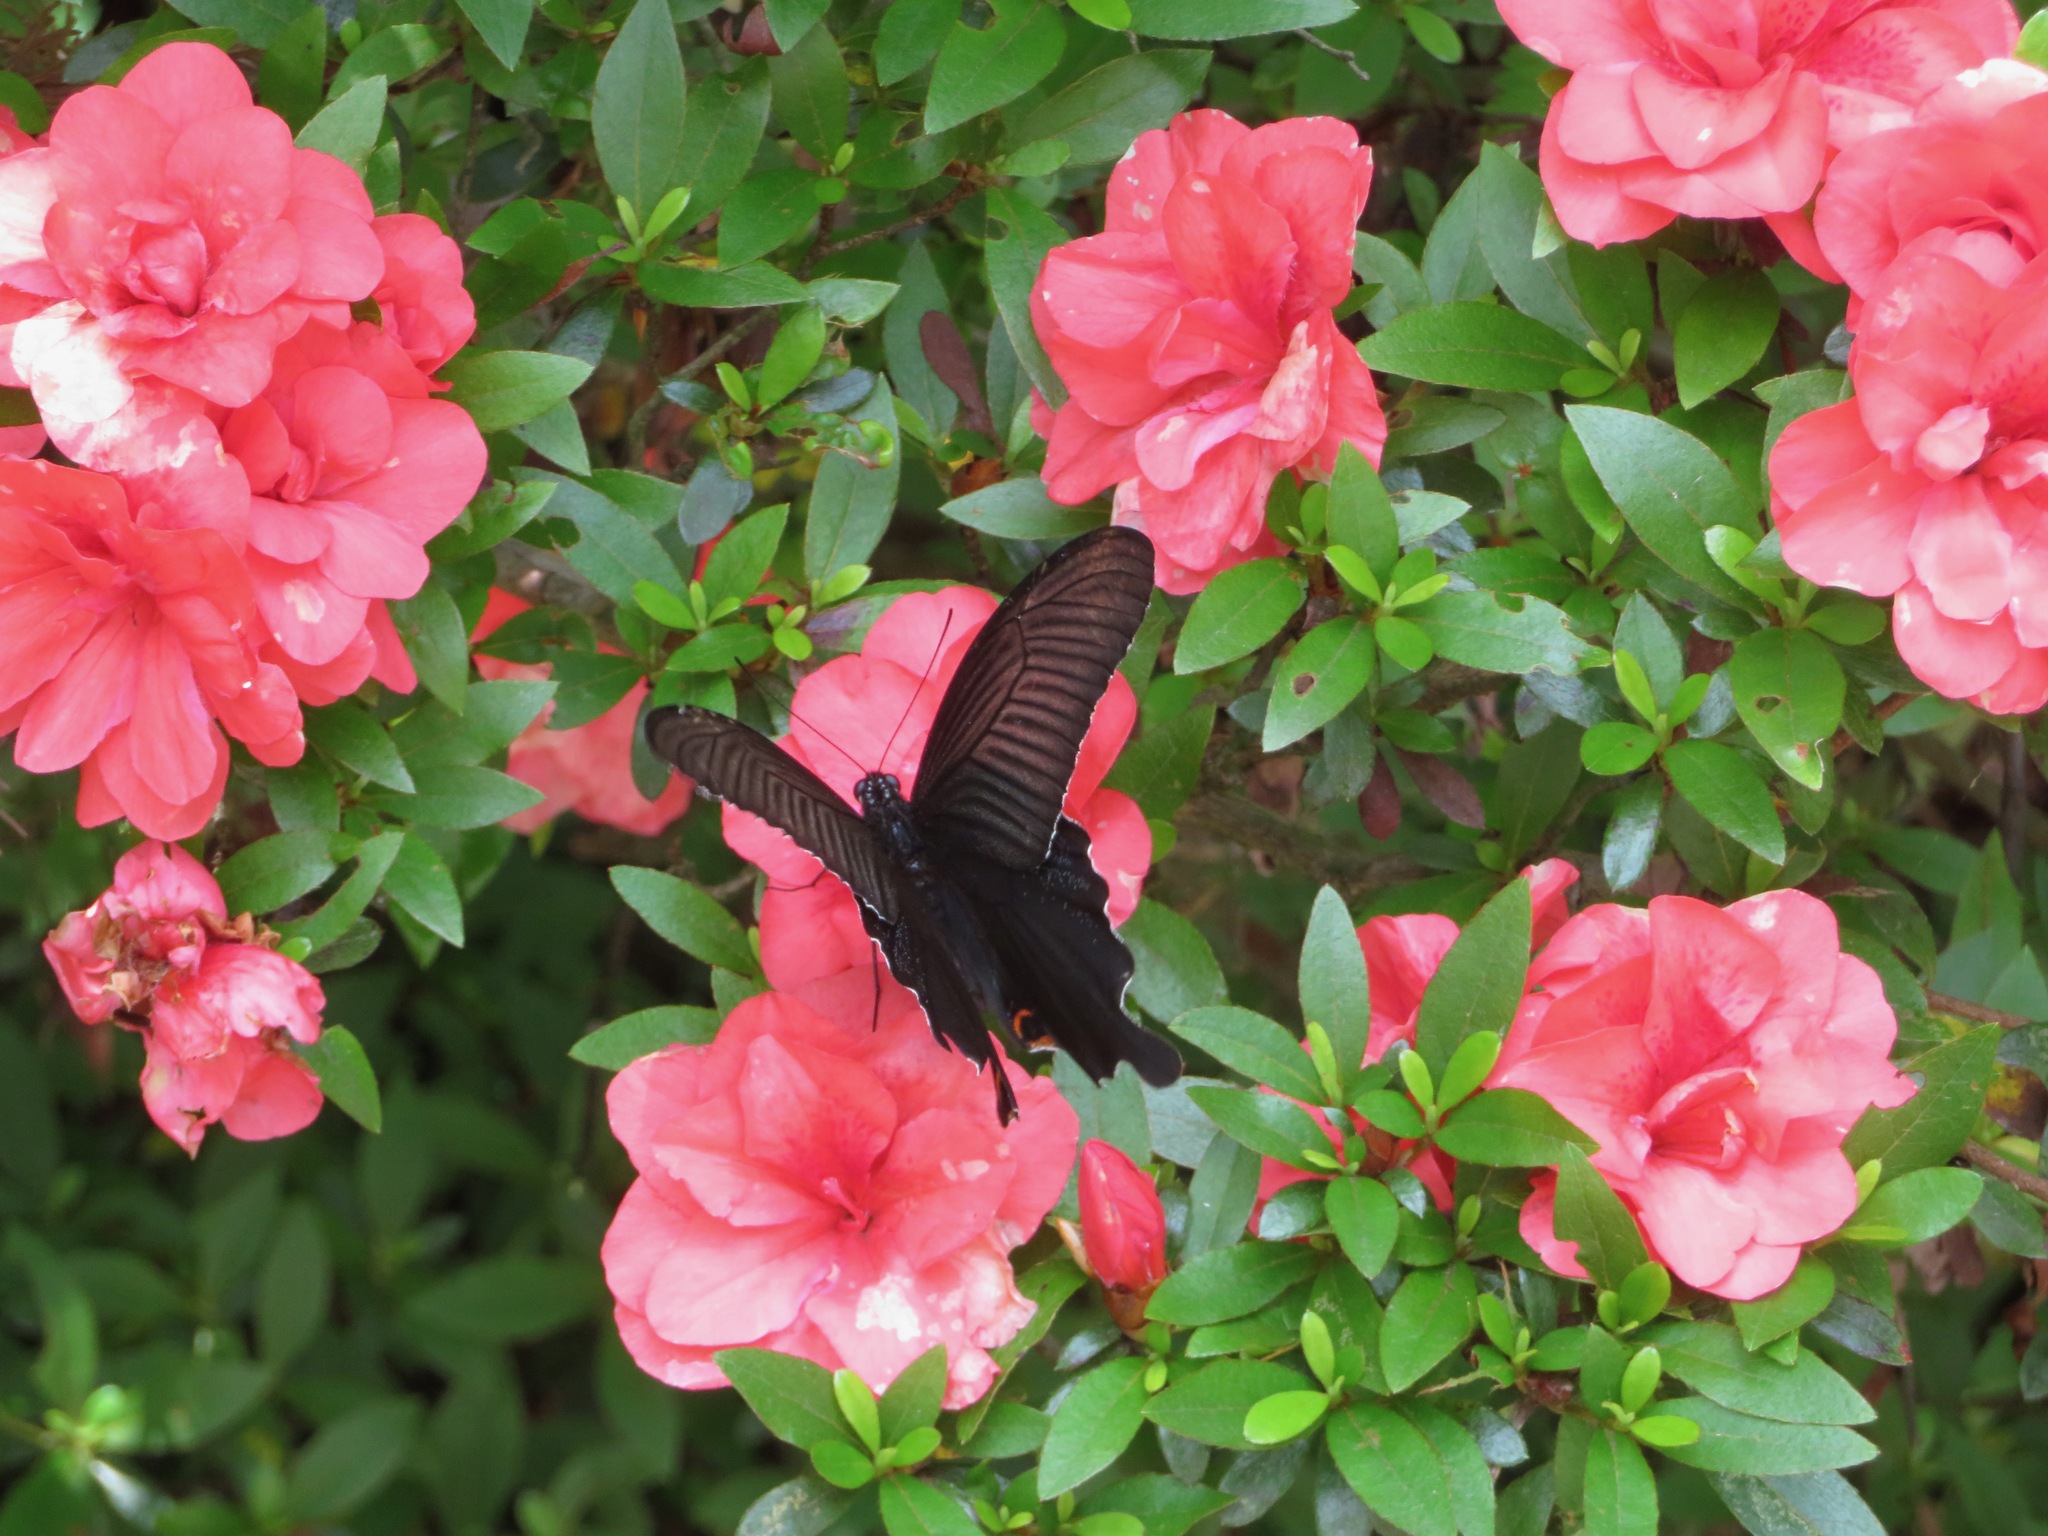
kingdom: Animalia
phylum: Arthropoda
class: Insecta
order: Lepidoptera
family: Papilionidae
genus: Papilio
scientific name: Papilio demetrius
